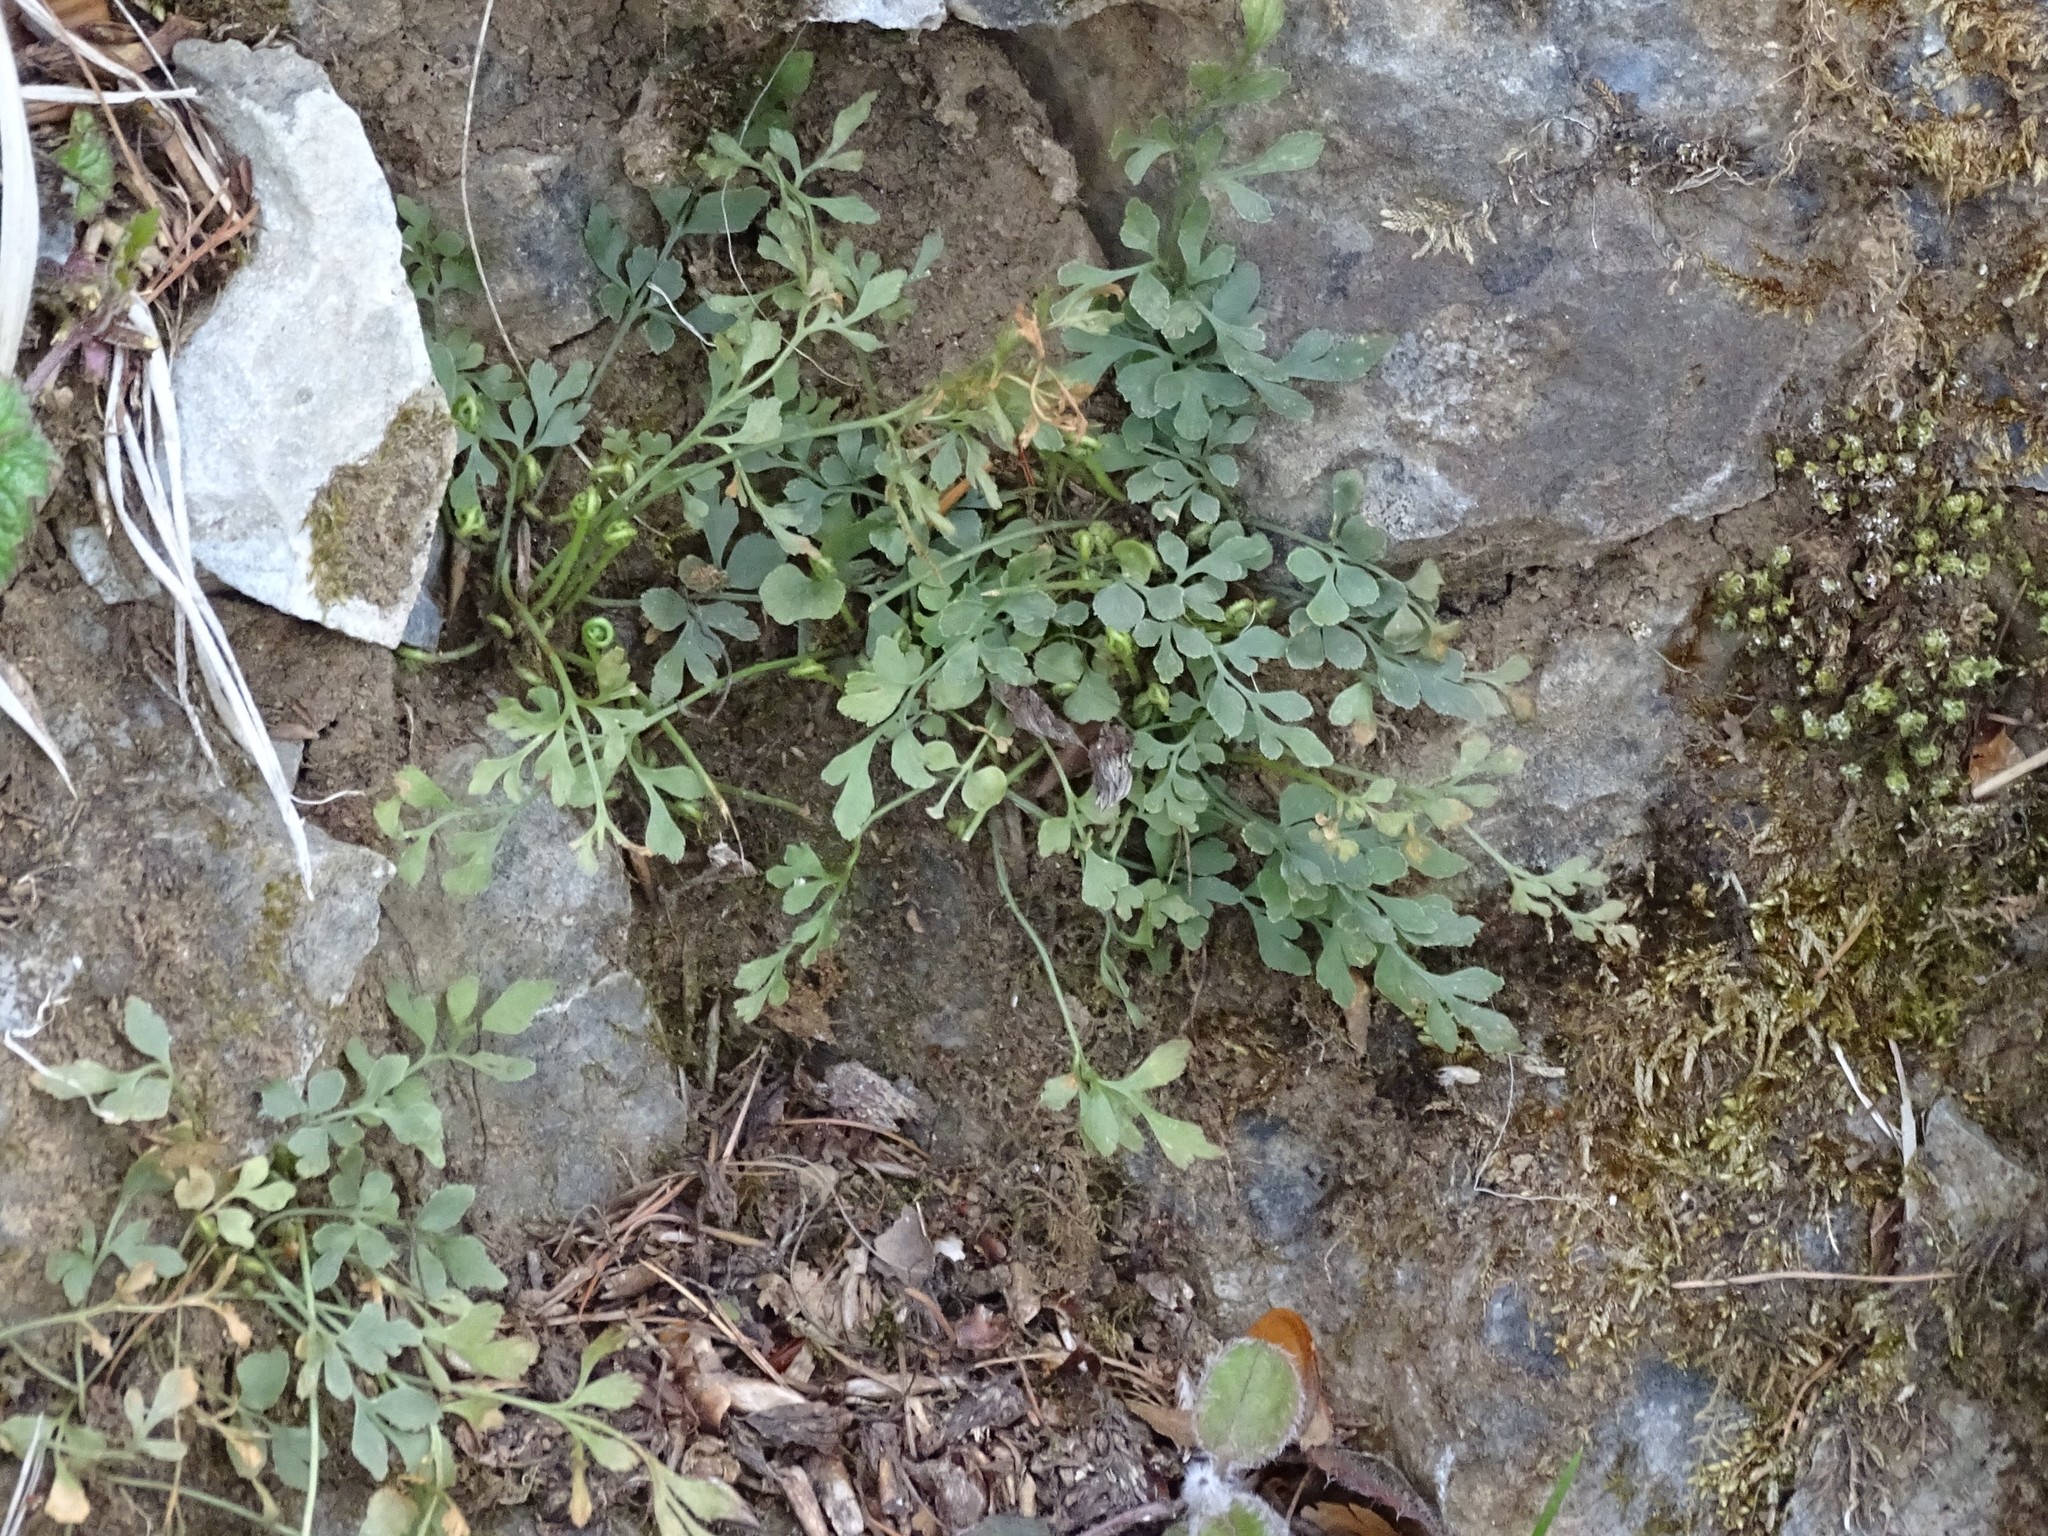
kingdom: Plantae
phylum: Tracheophyta
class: Polypodiopsida
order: Polypodiales
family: Aspleniaceae
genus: Asplenium
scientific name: Asplenium ruta-muraria
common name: Wall-rue
